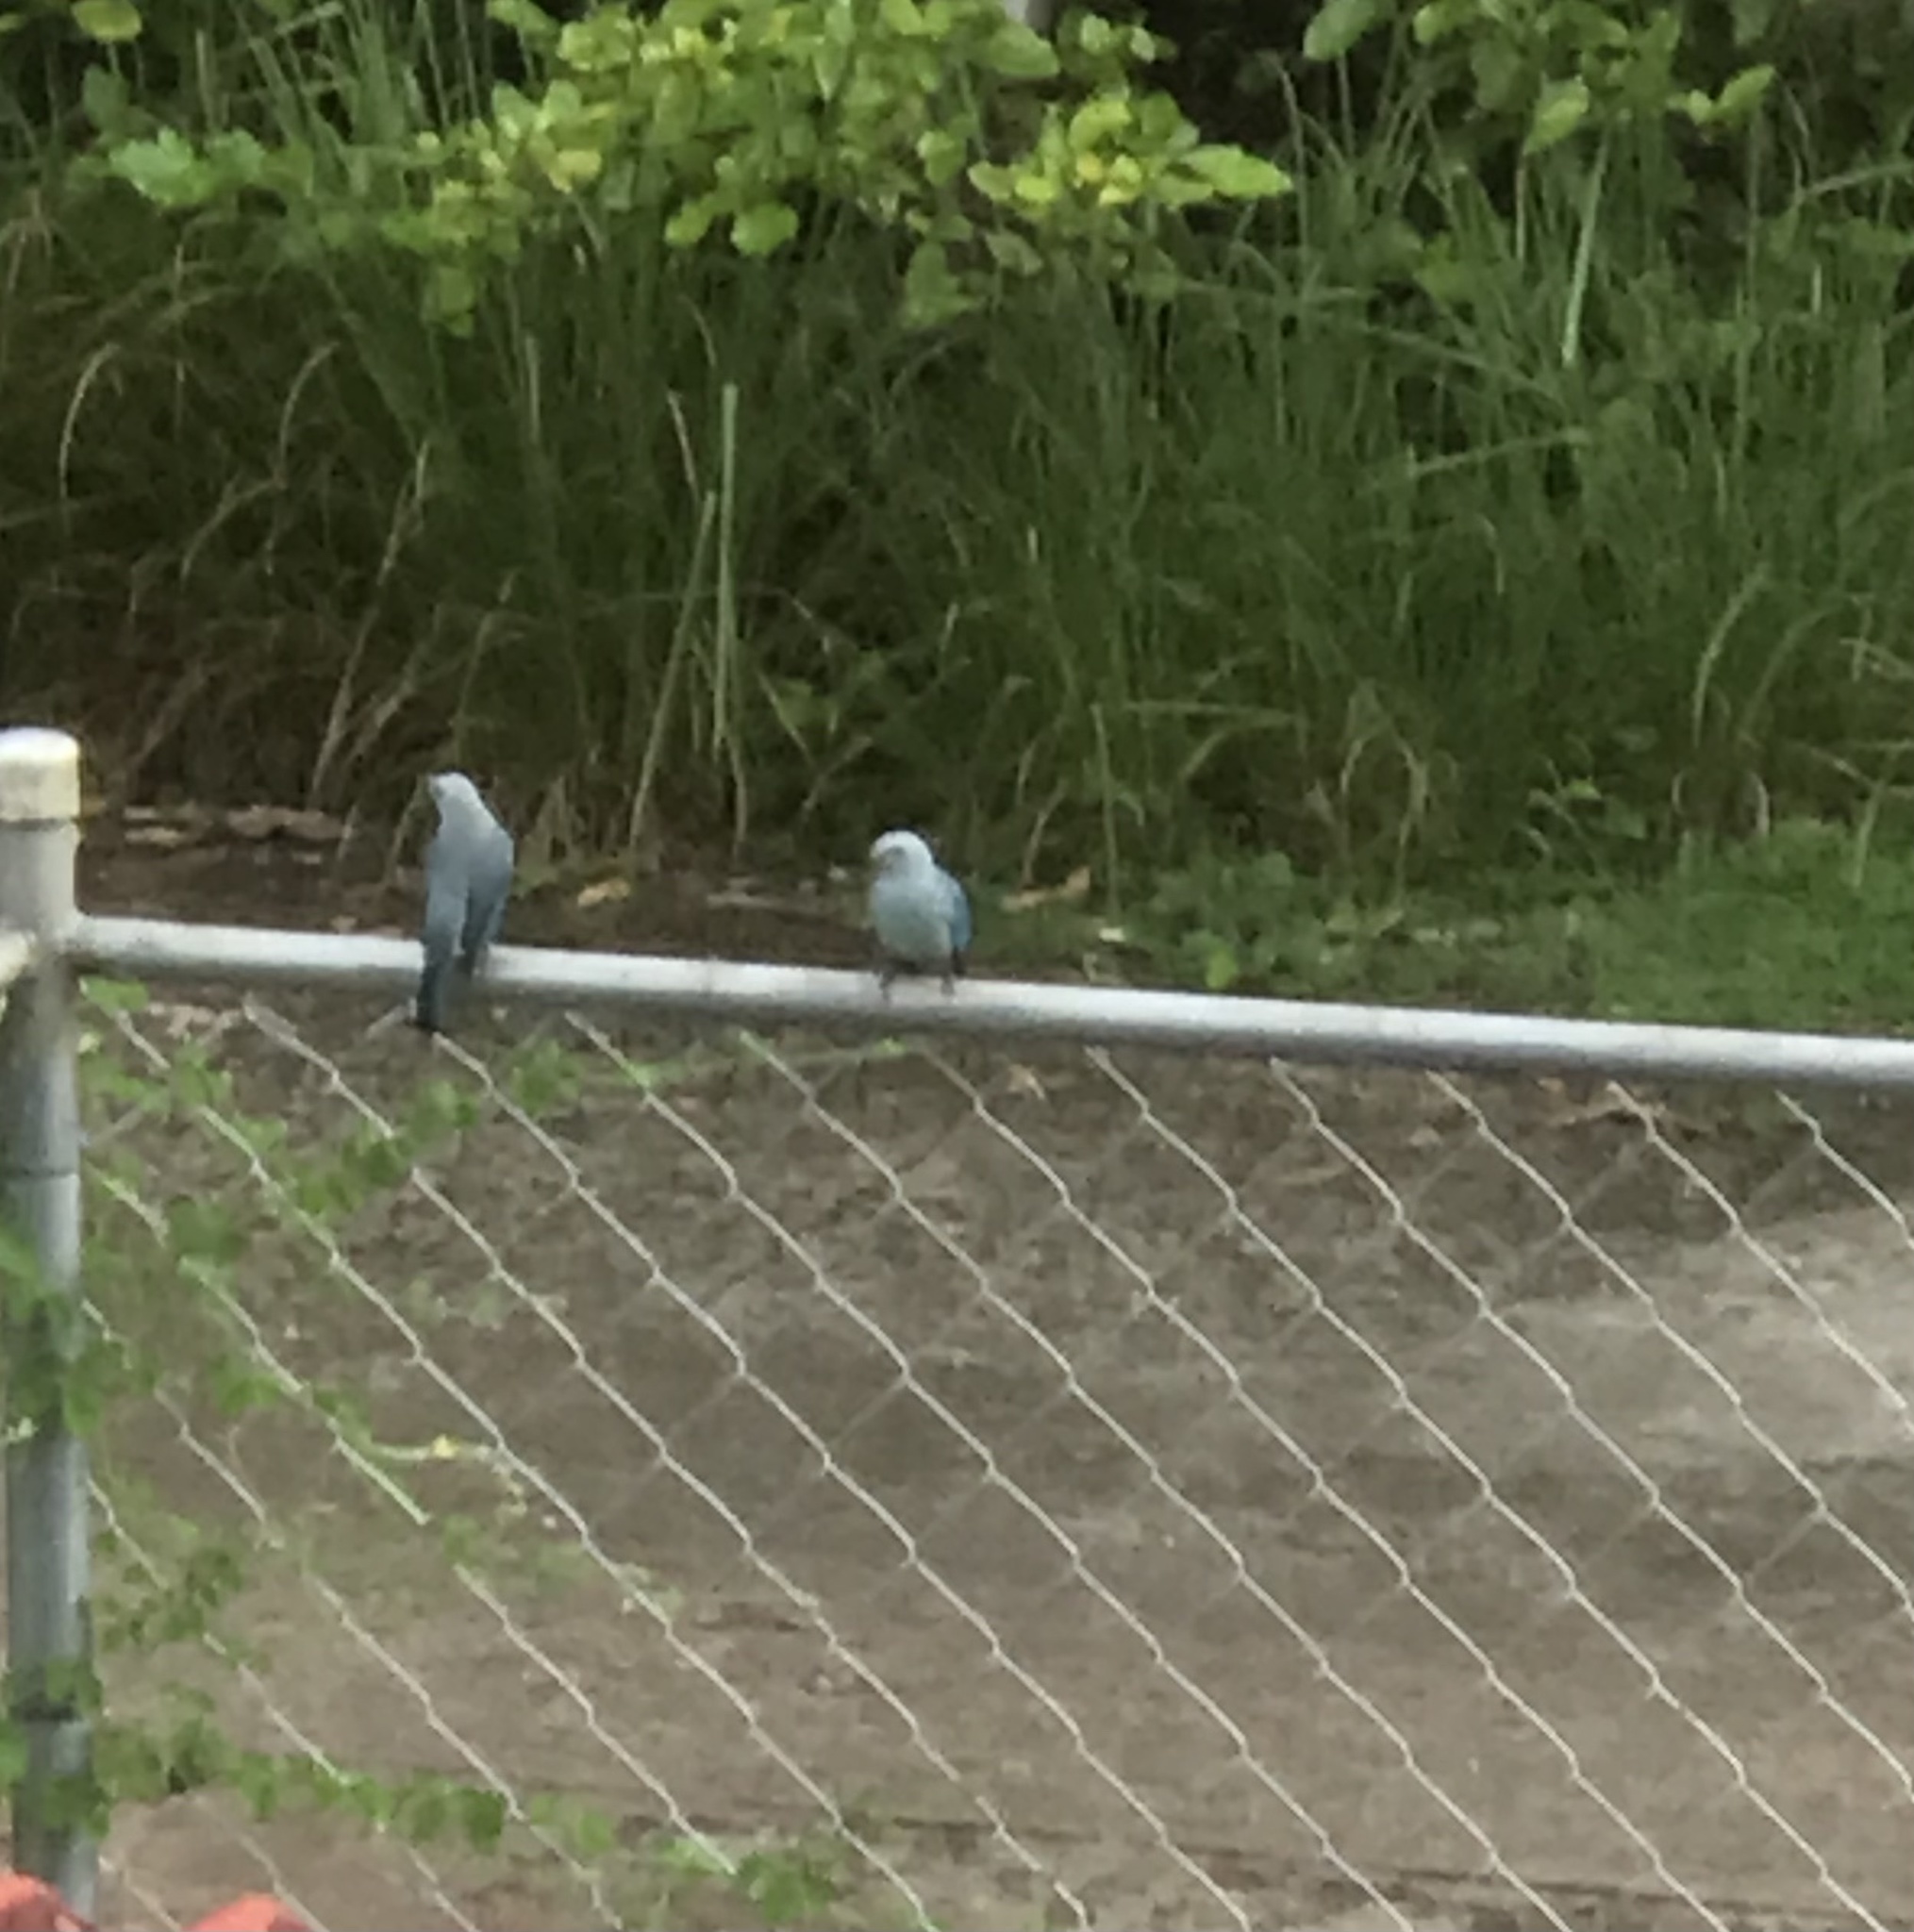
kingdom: Animalia
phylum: Chordata
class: Aves
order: Passeriformes
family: Thraupidae
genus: Thraupis
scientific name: Thraupis episcopus
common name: Blue-grey tanager
